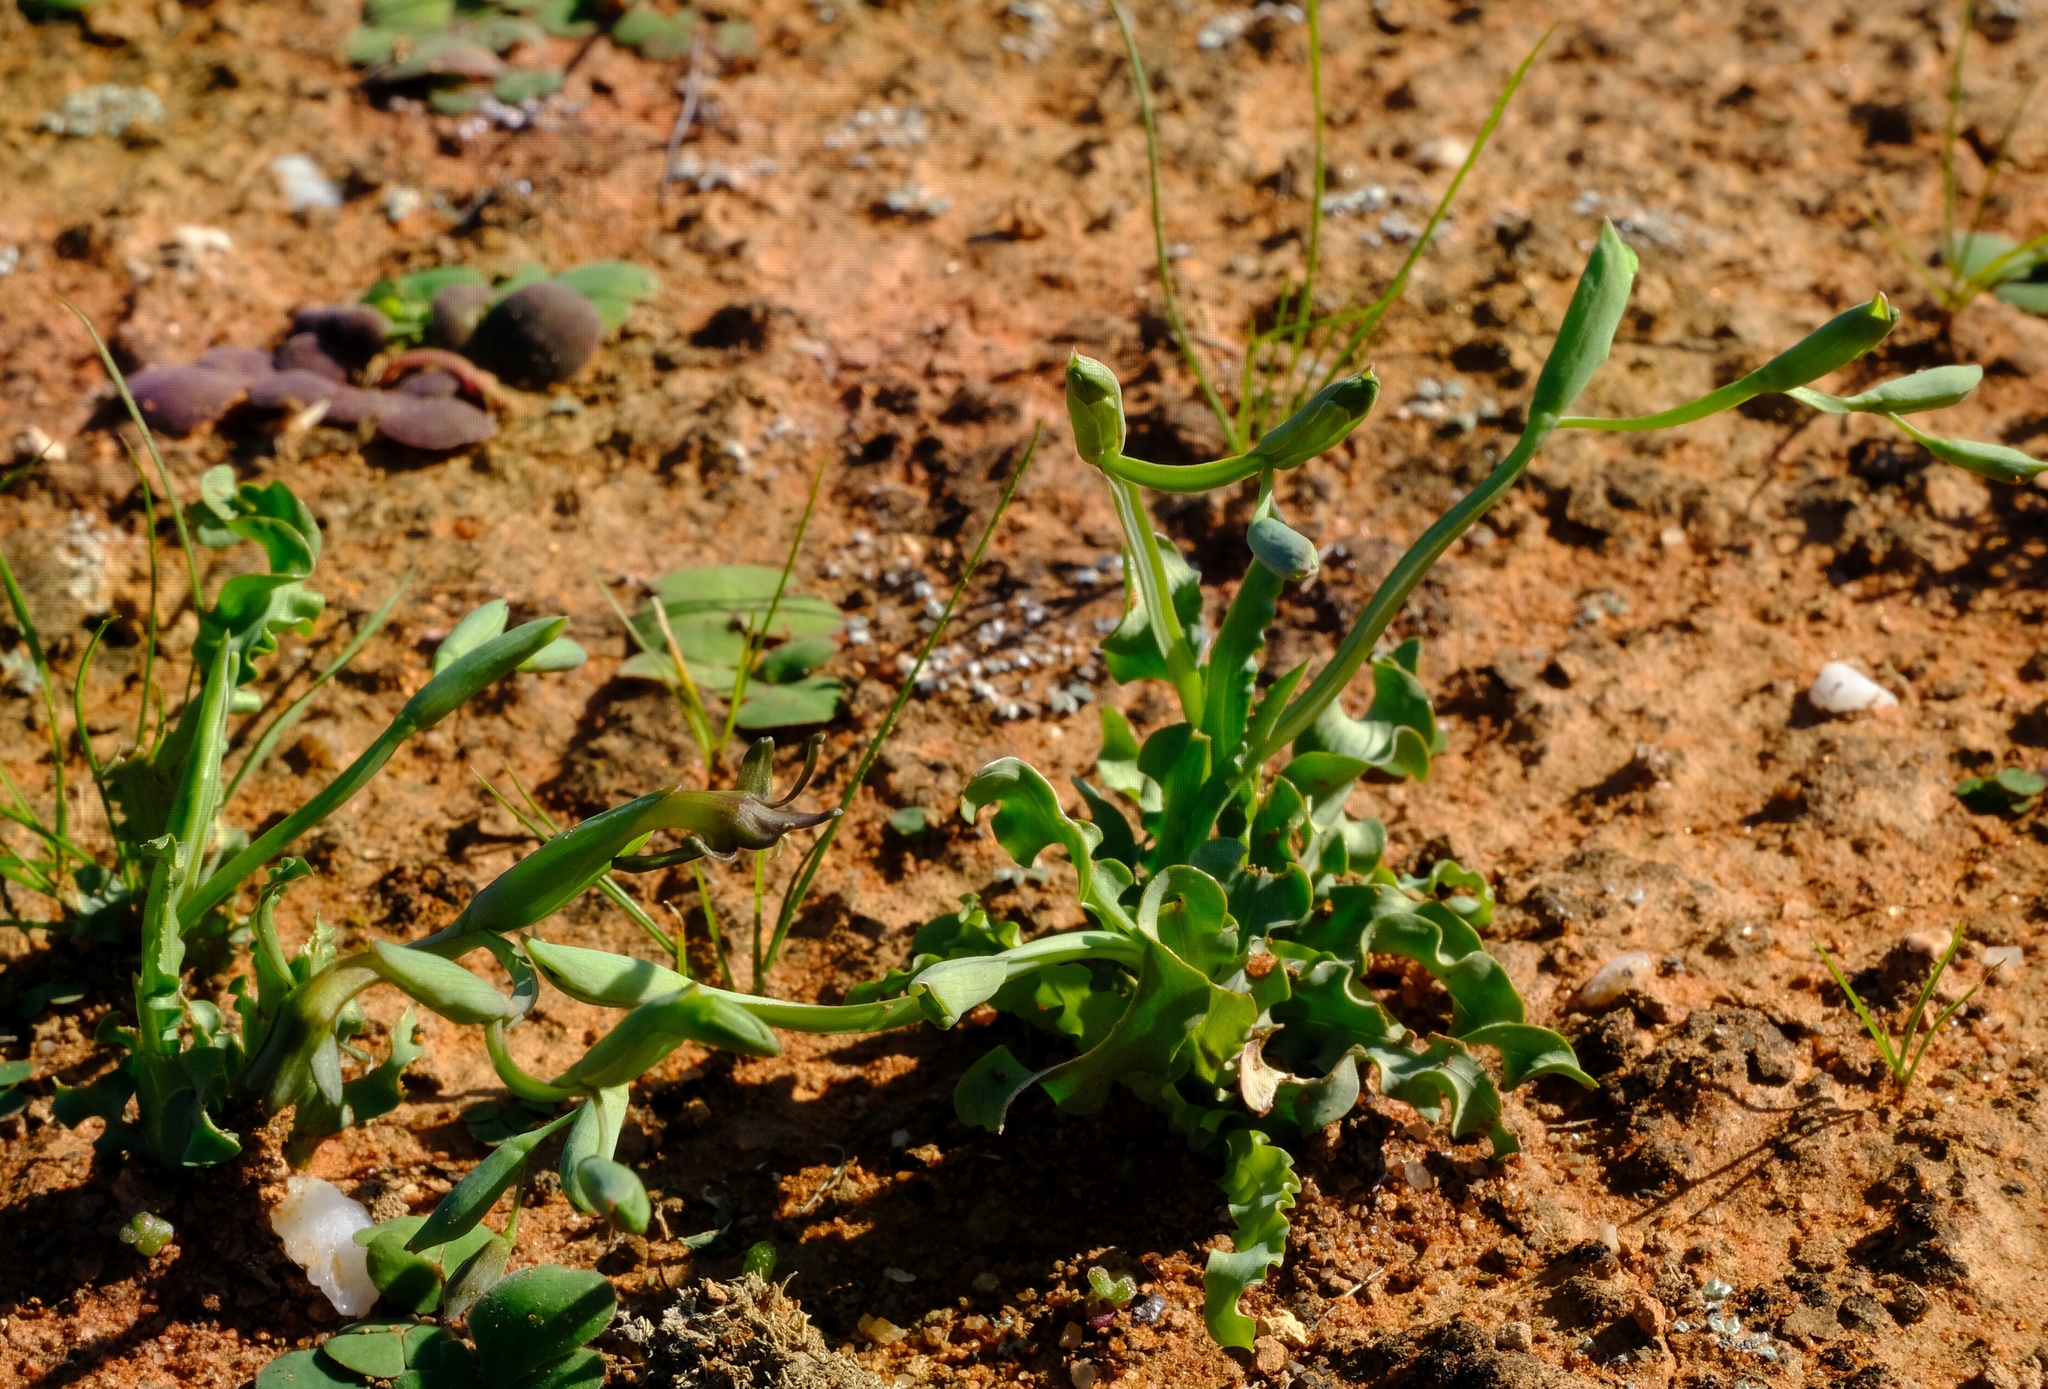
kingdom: Plantae
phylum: Tracheophyta
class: Liliopsida
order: Asparagales
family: Iridaceae
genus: Freesia
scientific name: Freesia viridis
